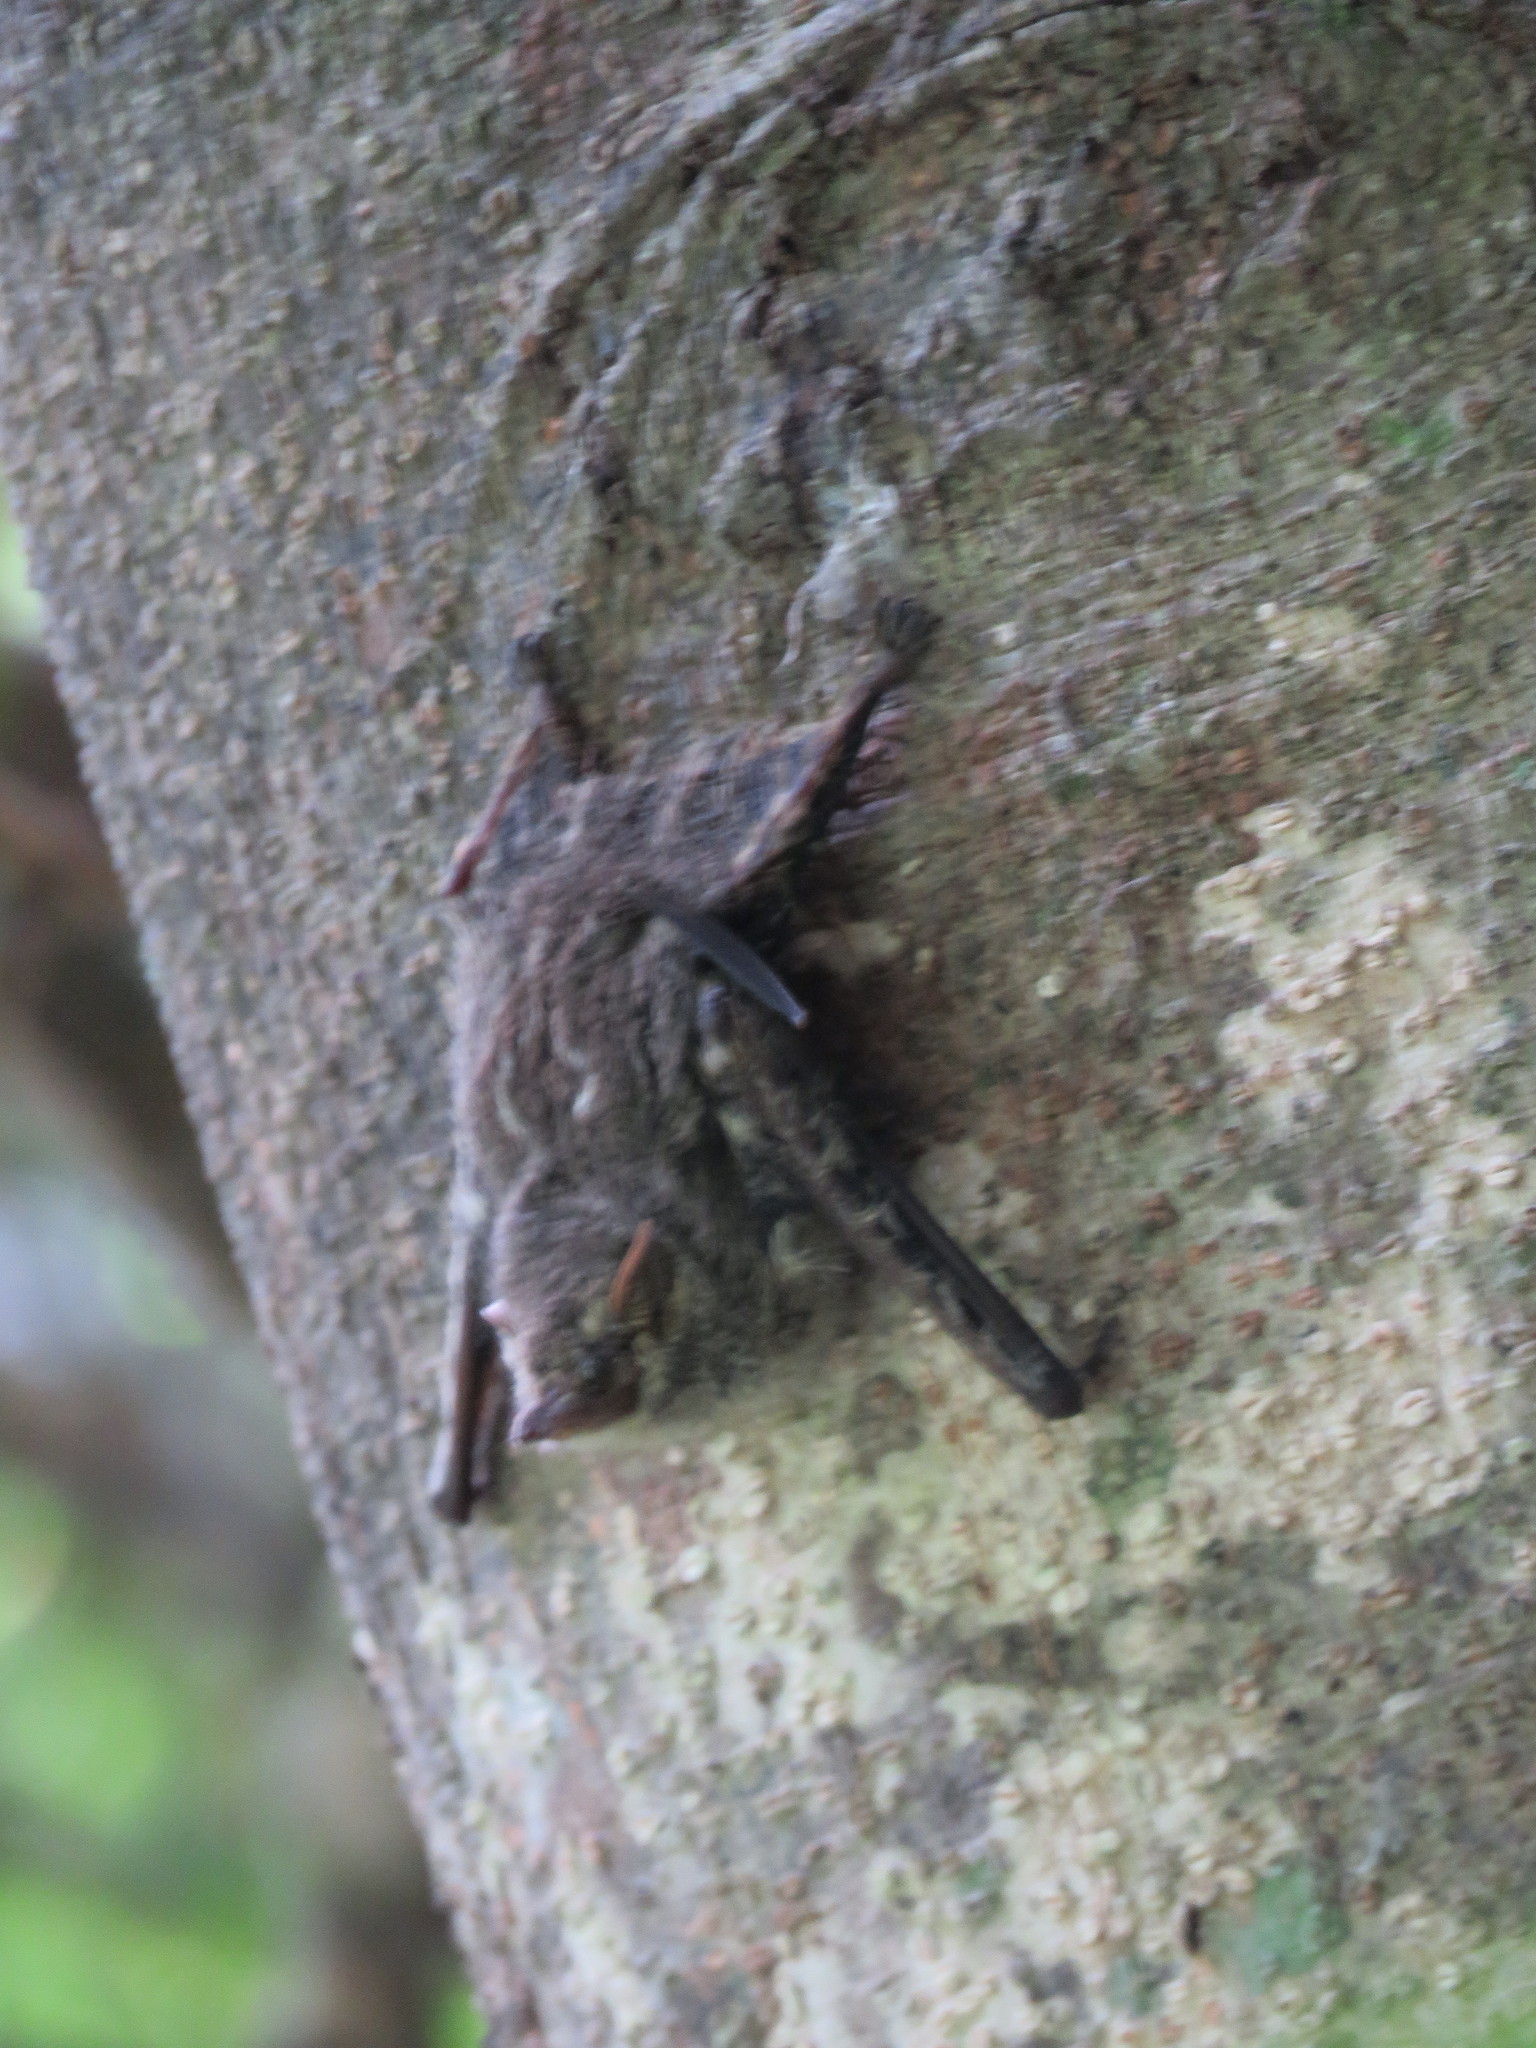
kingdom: Animalia
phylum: Chordata
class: Mammalia
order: Chiroptera
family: Emballonuridae
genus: Rhynchonycteris
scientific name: Rhynchonycteris naso
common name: Proboscis bat
